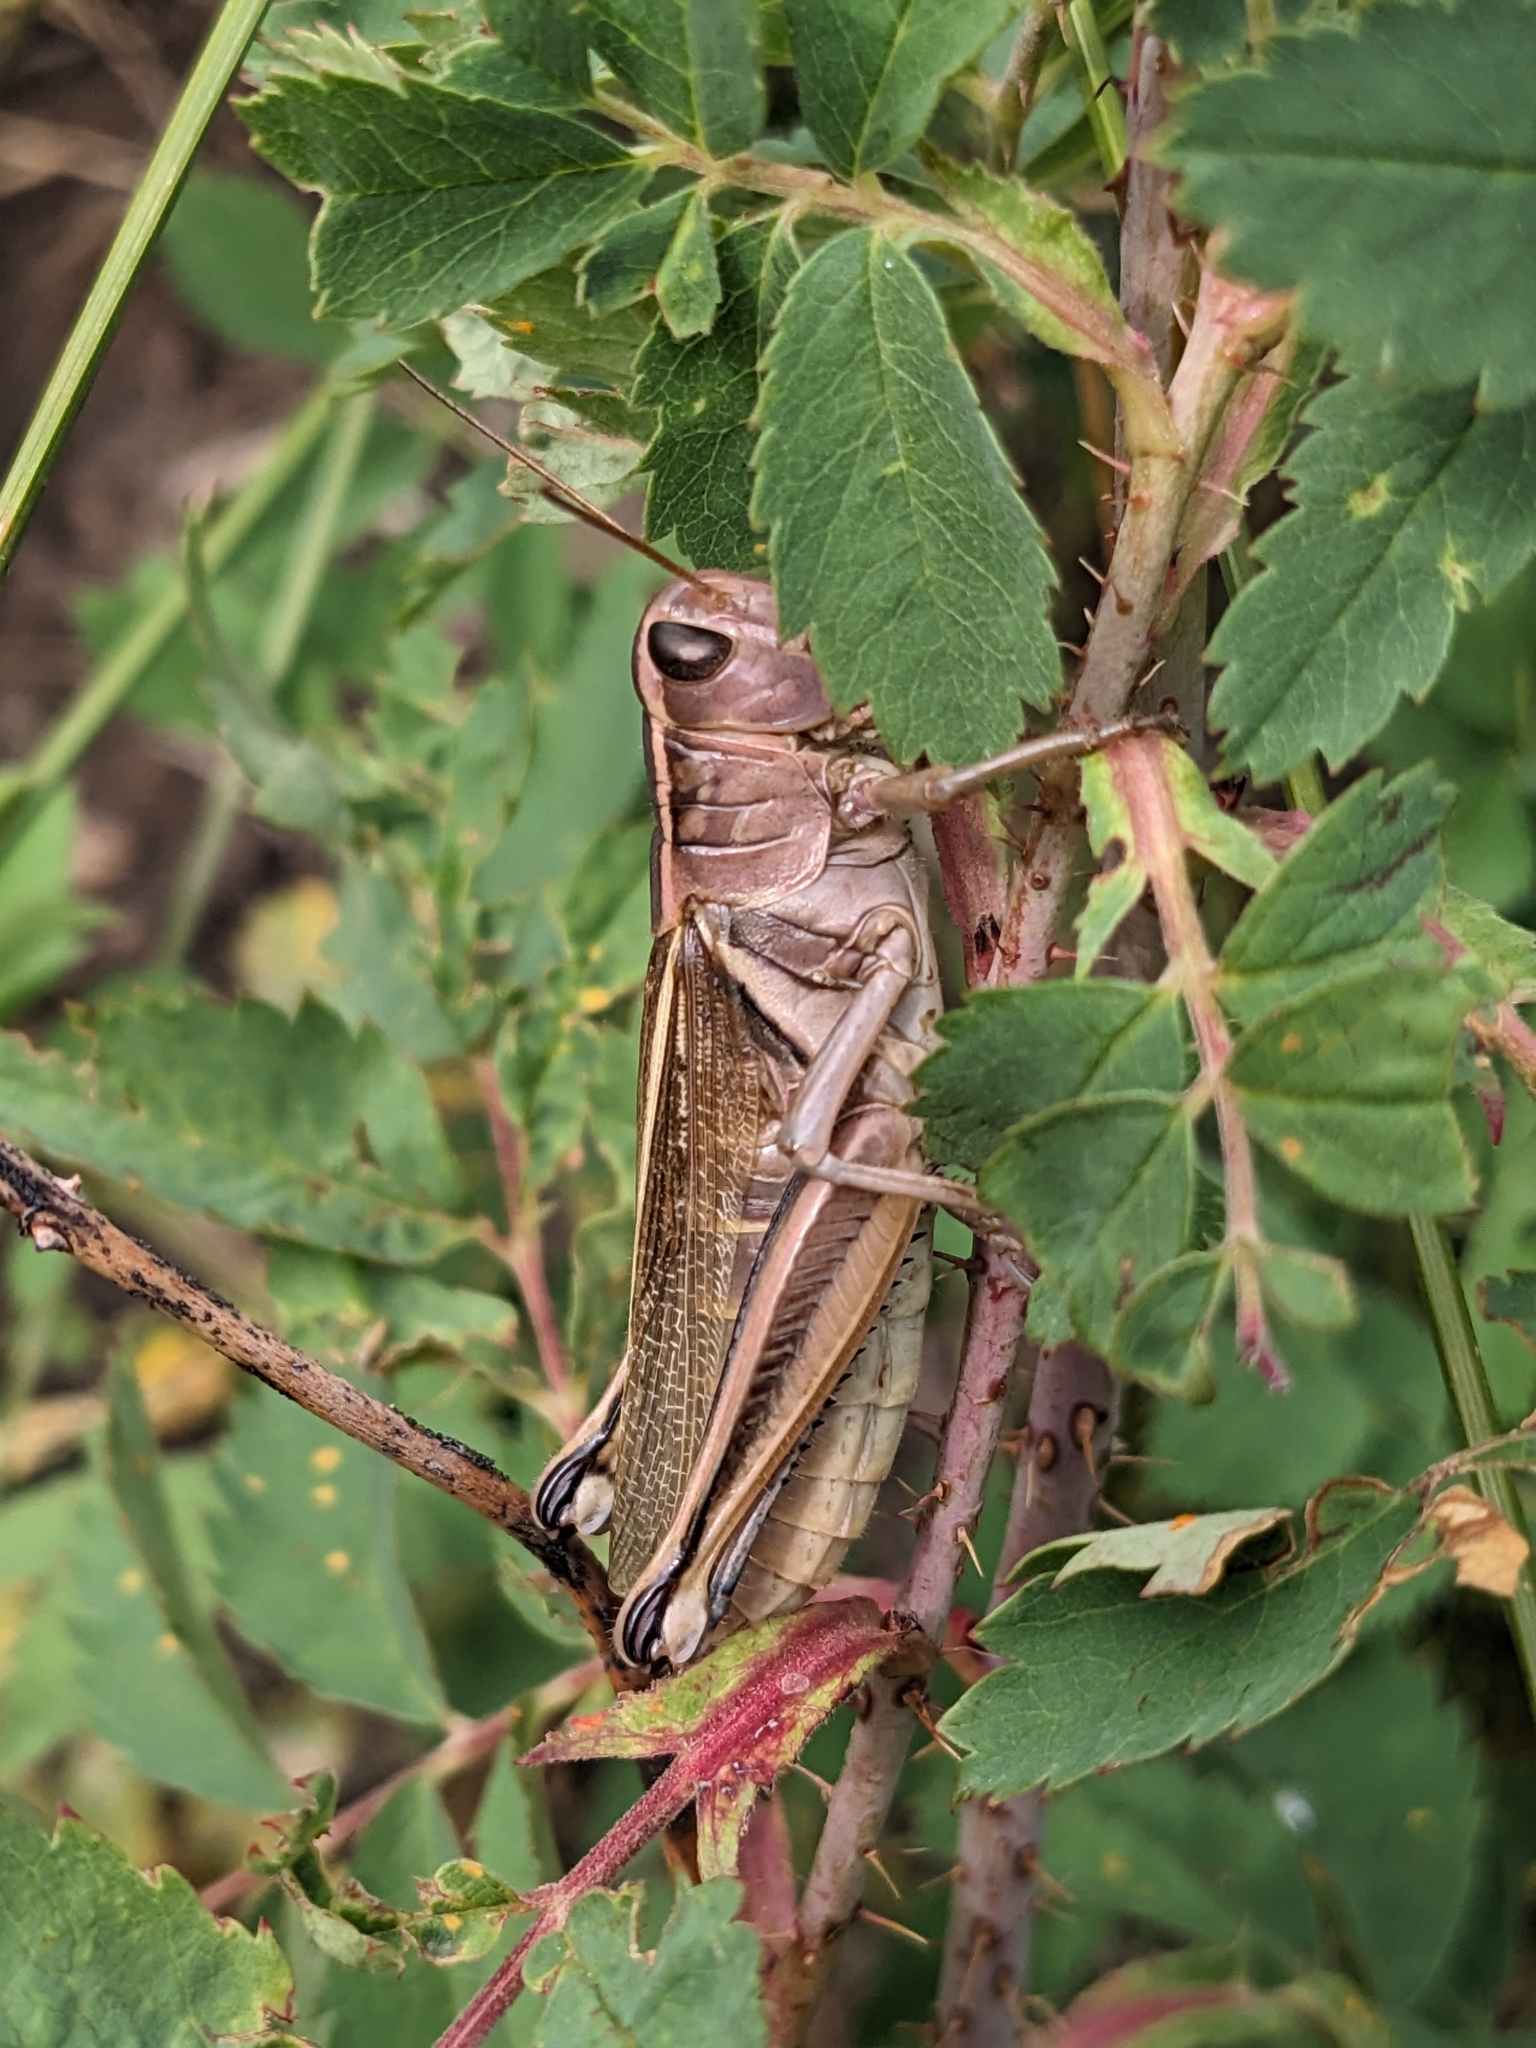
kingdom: Animalia
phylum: Arthropoda
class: Insecta
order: Orthoptera
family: Acrididae
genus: Melanoplus
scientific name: Melanoplus bivittatus
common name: Two-striped grasshopper
